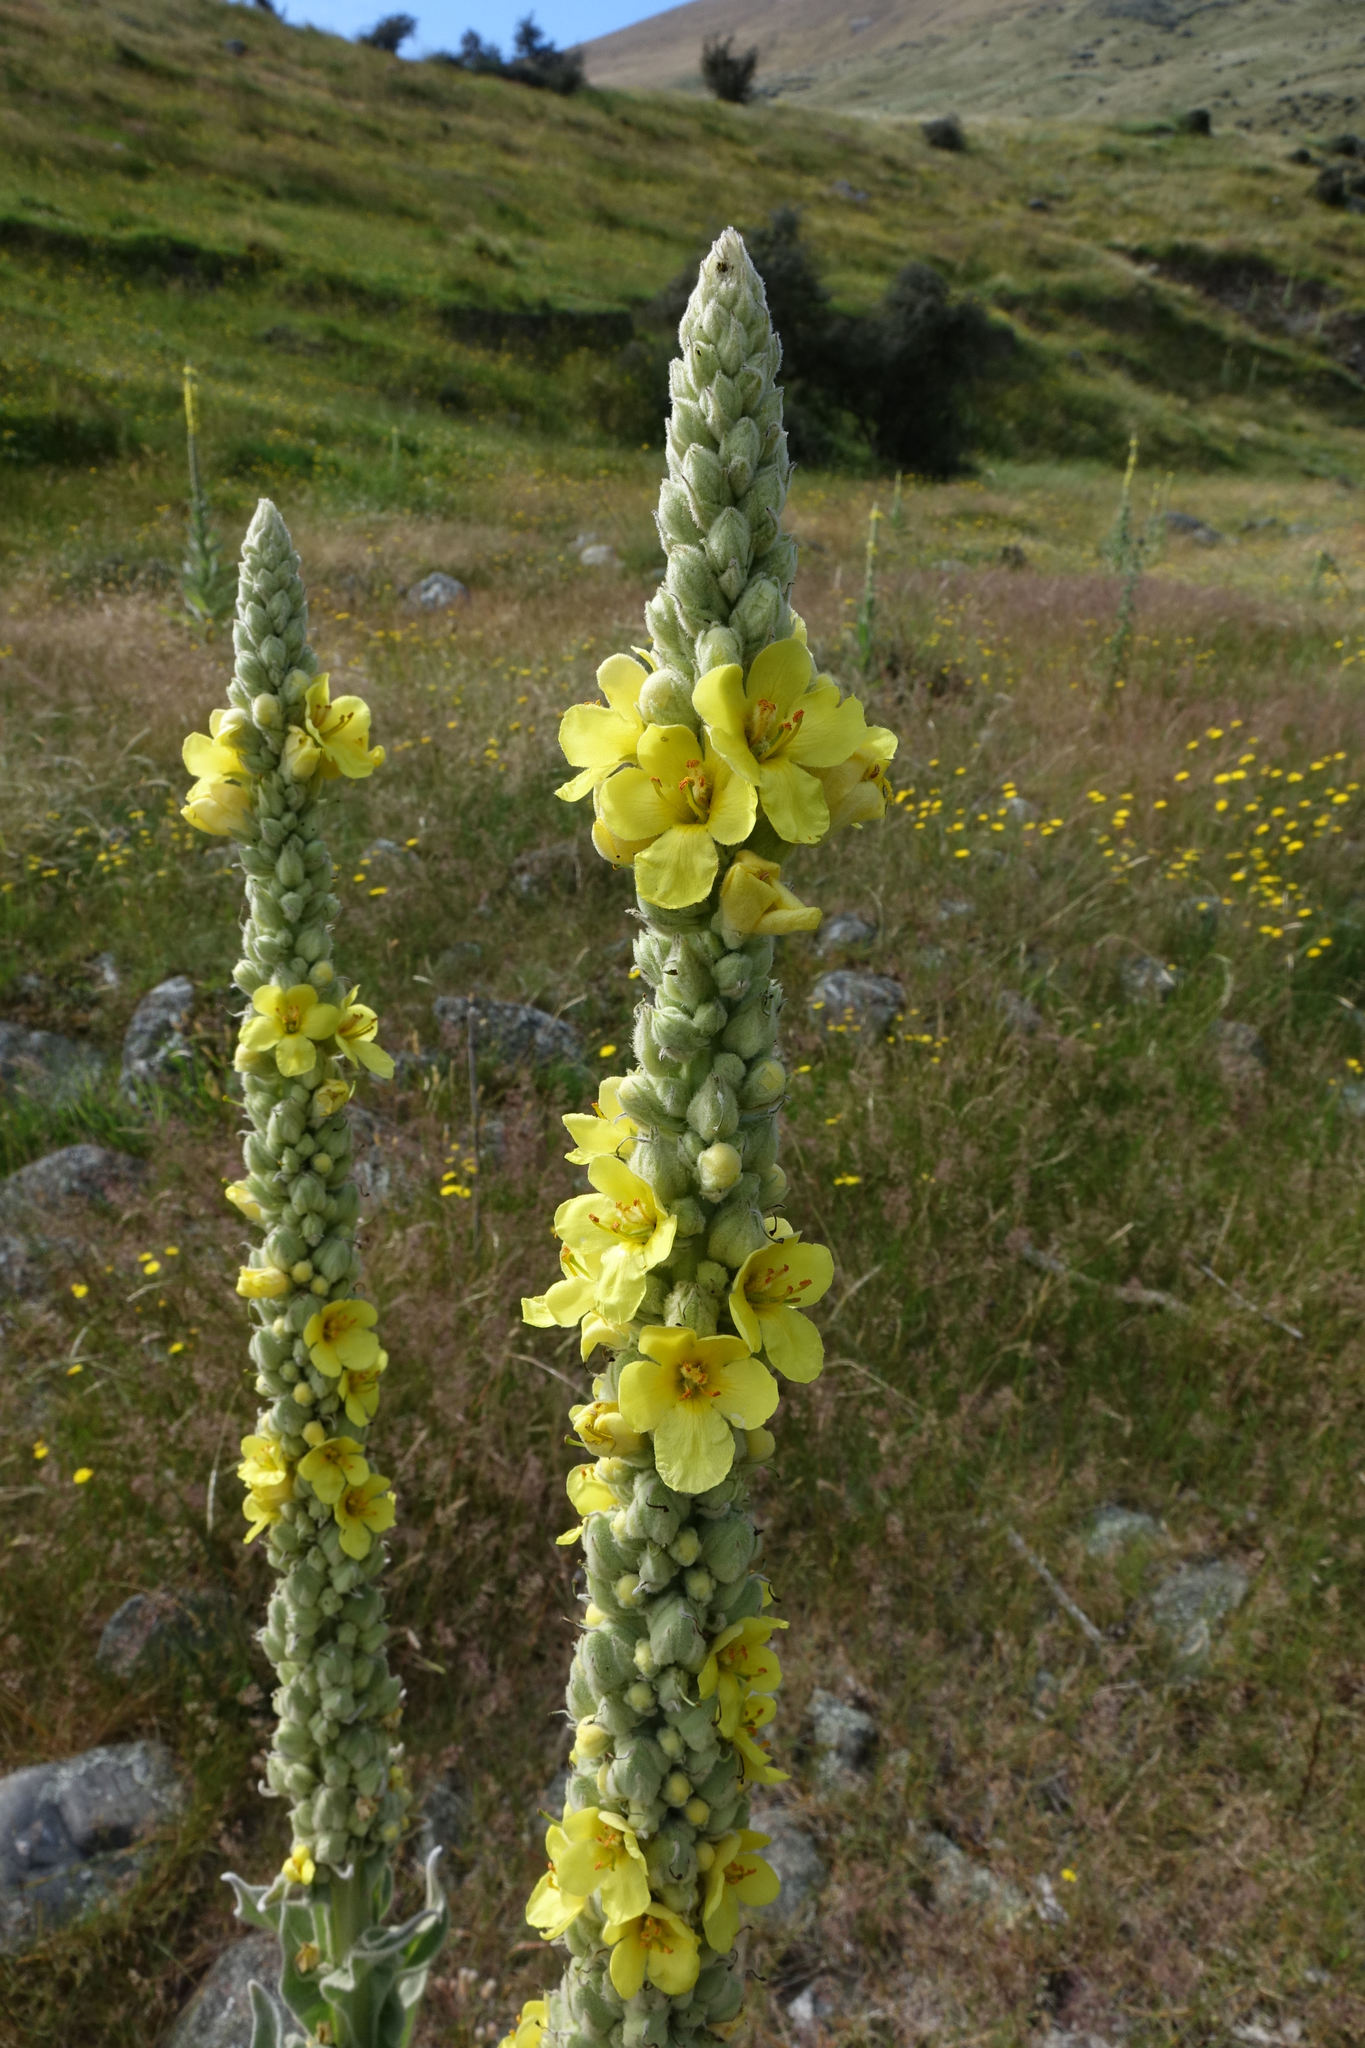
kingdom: Plantae
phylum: Tracheophyta
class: Magnoliopsida
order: Lamiales
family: Scrophulariaceae
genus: Verbascum
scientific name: Verbascum thapsus
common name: Common mullein
